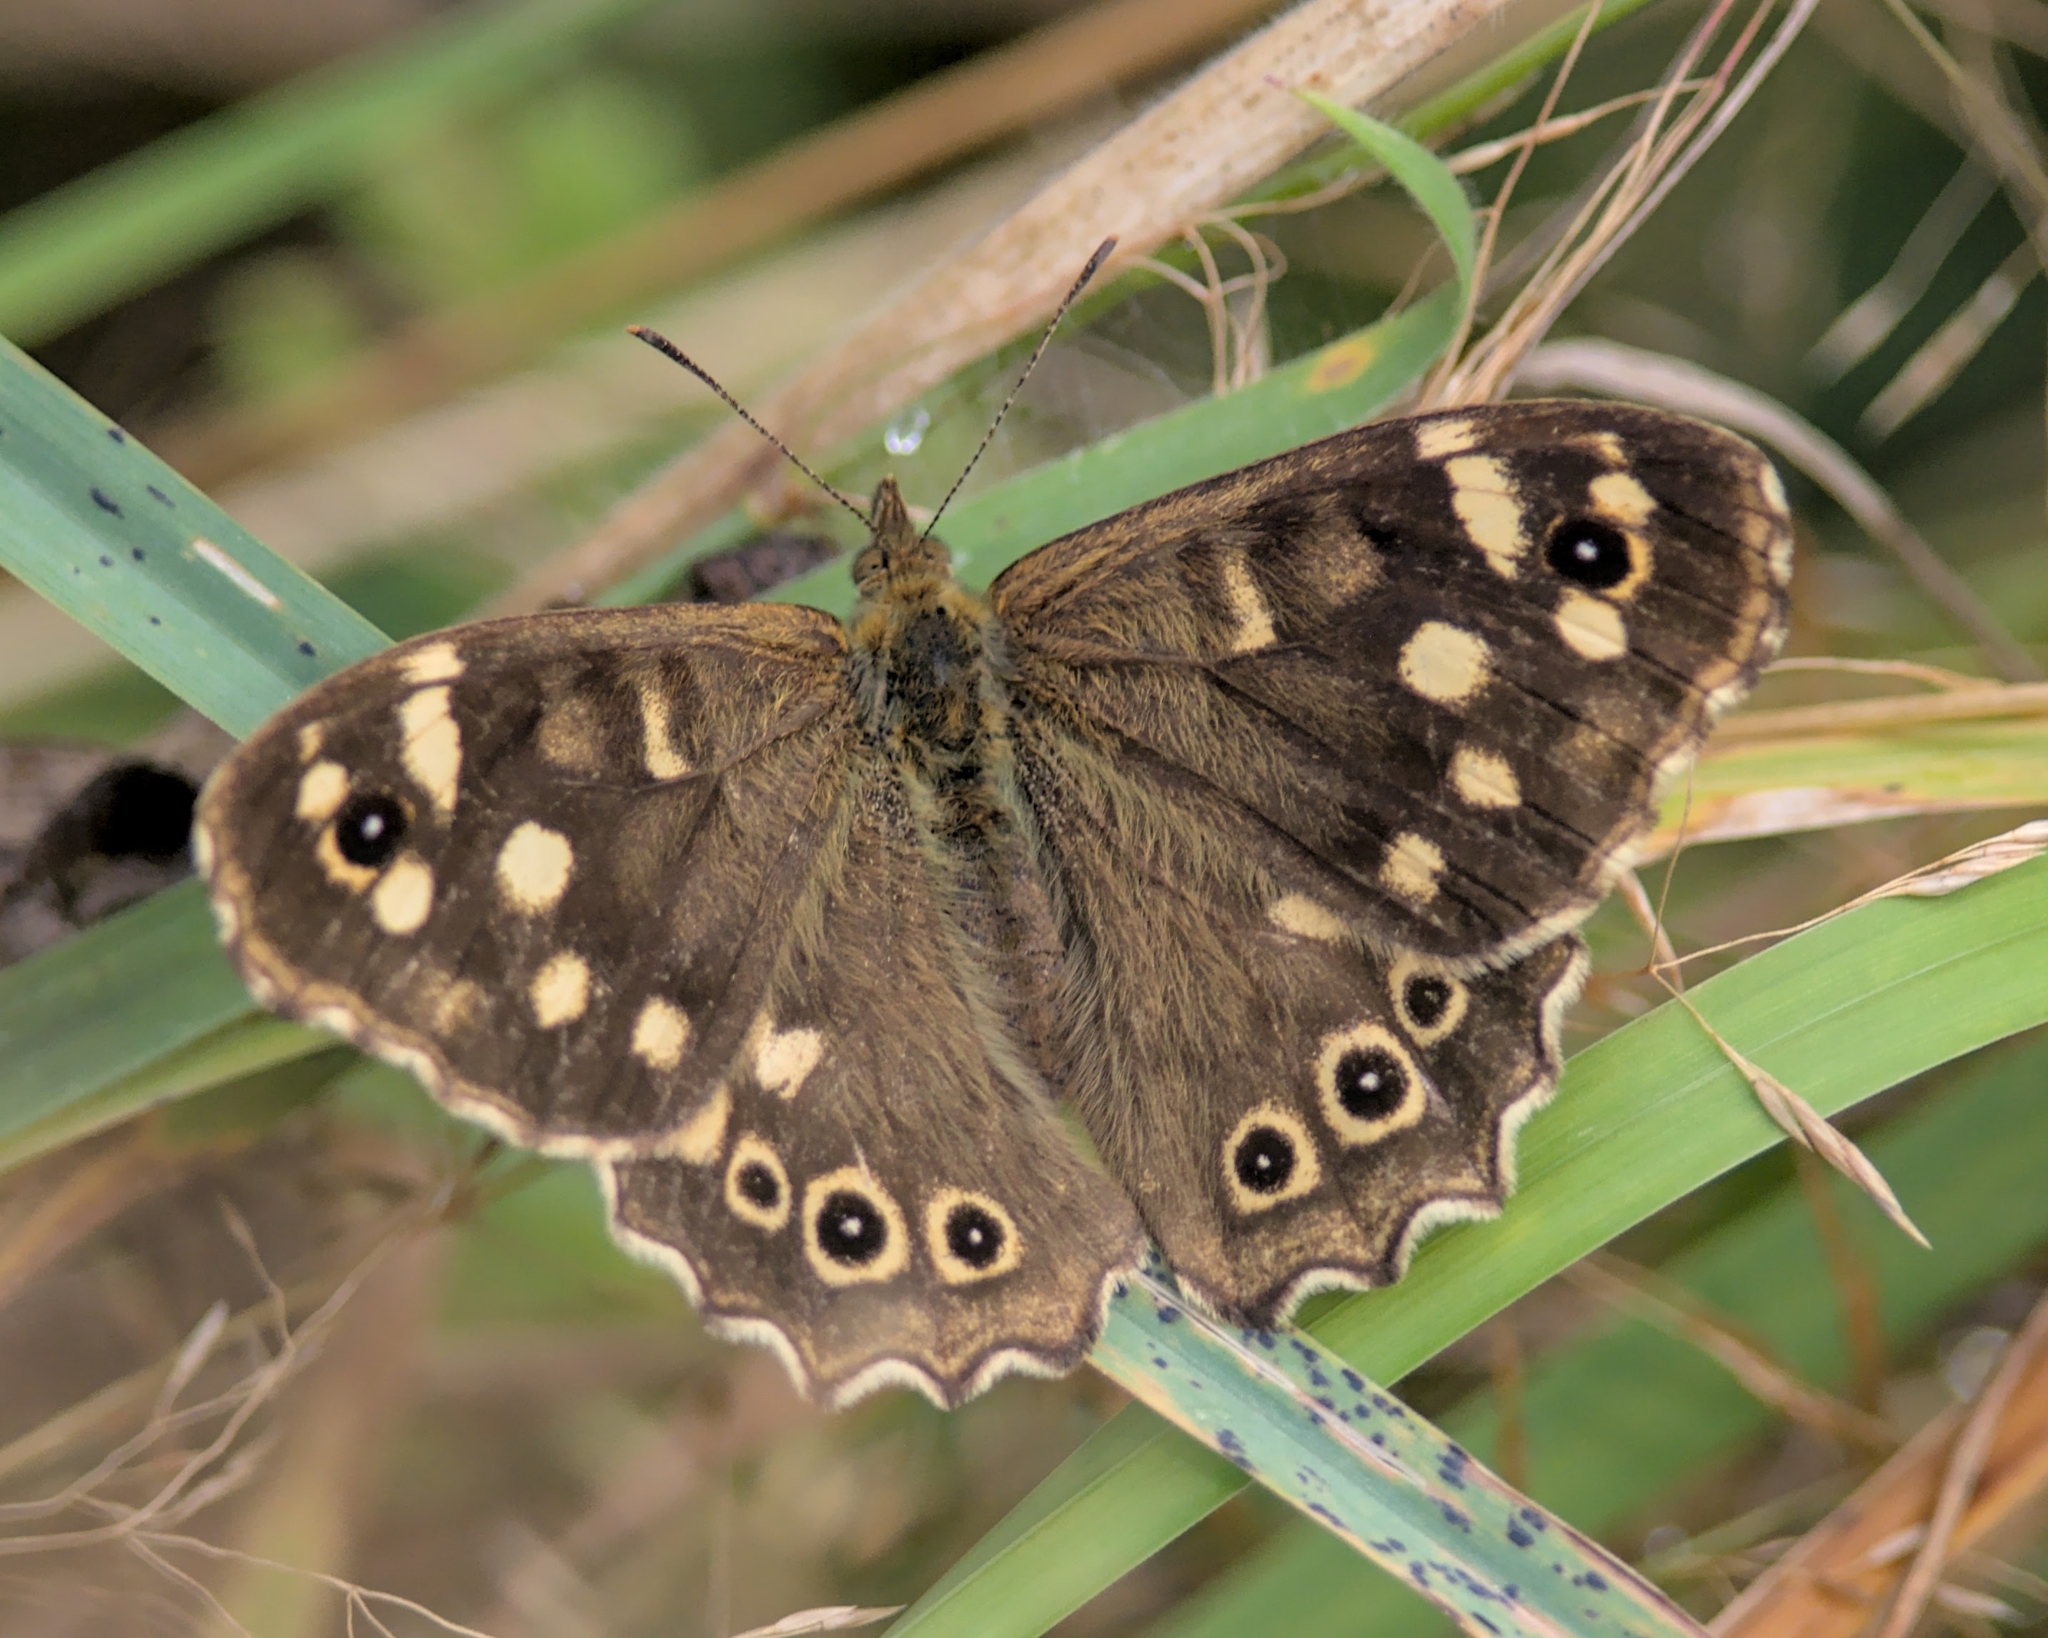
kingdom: Animalia
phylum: Arthropoda
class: Insecta
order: Lepidoptera
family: Nymphalidae
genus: Pararge
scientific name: Pararge aegeria
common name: Speckled wood
